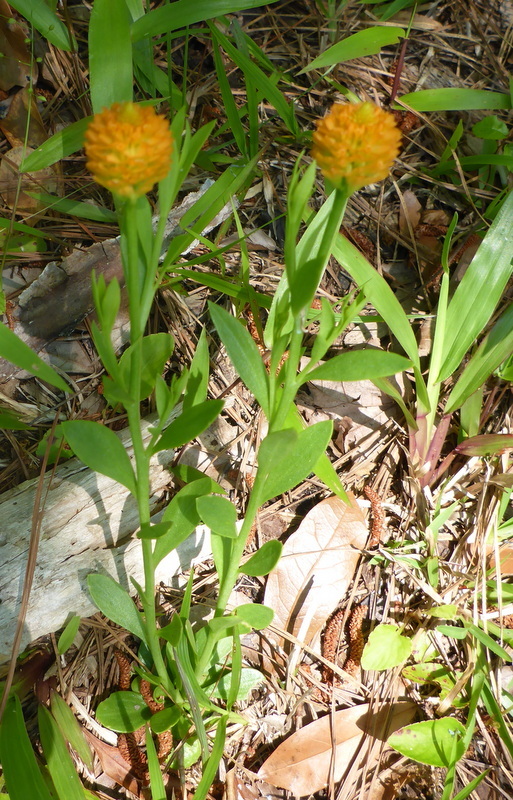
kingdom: Plantae
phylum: Tracheophyta
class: Magnoliopsida
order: Fabales
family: Polygalaceae
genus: Polygala
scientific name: Polygala lutea
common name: Orange milkwort
